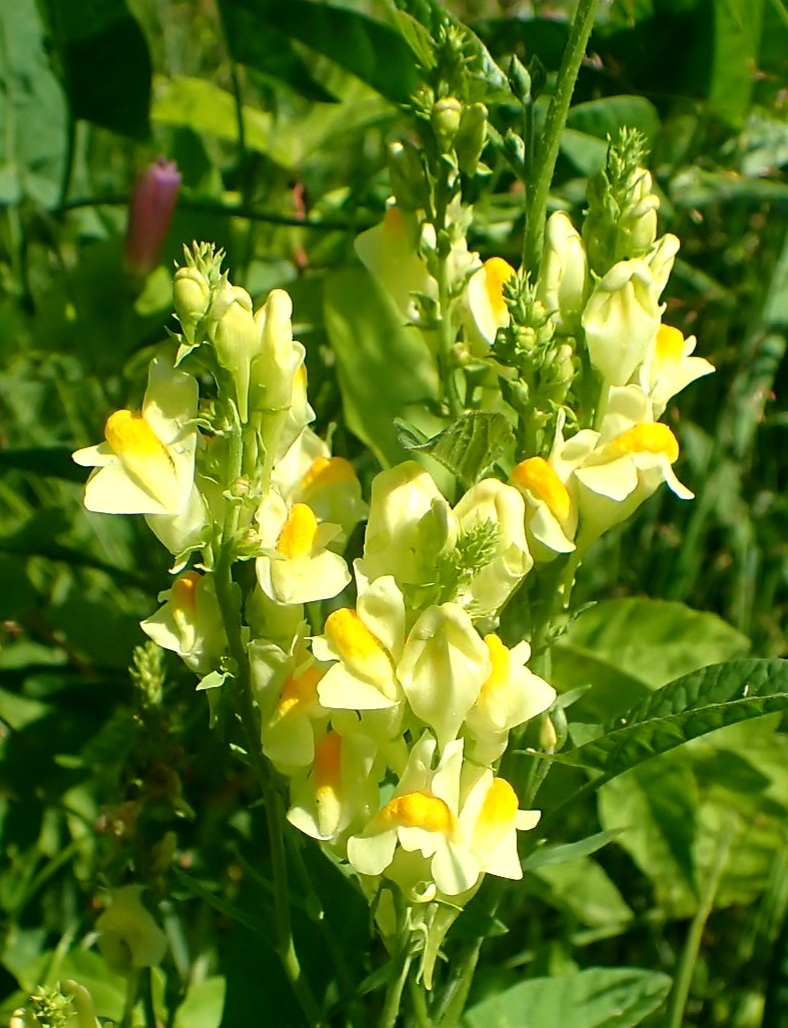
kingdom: Plantae
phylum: Tracheophyta
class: Magnoliopsida
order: Lamiales
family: Plantaginaceae
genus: Linaria
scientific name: Linaria vulgaris
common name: Butter and eggs
